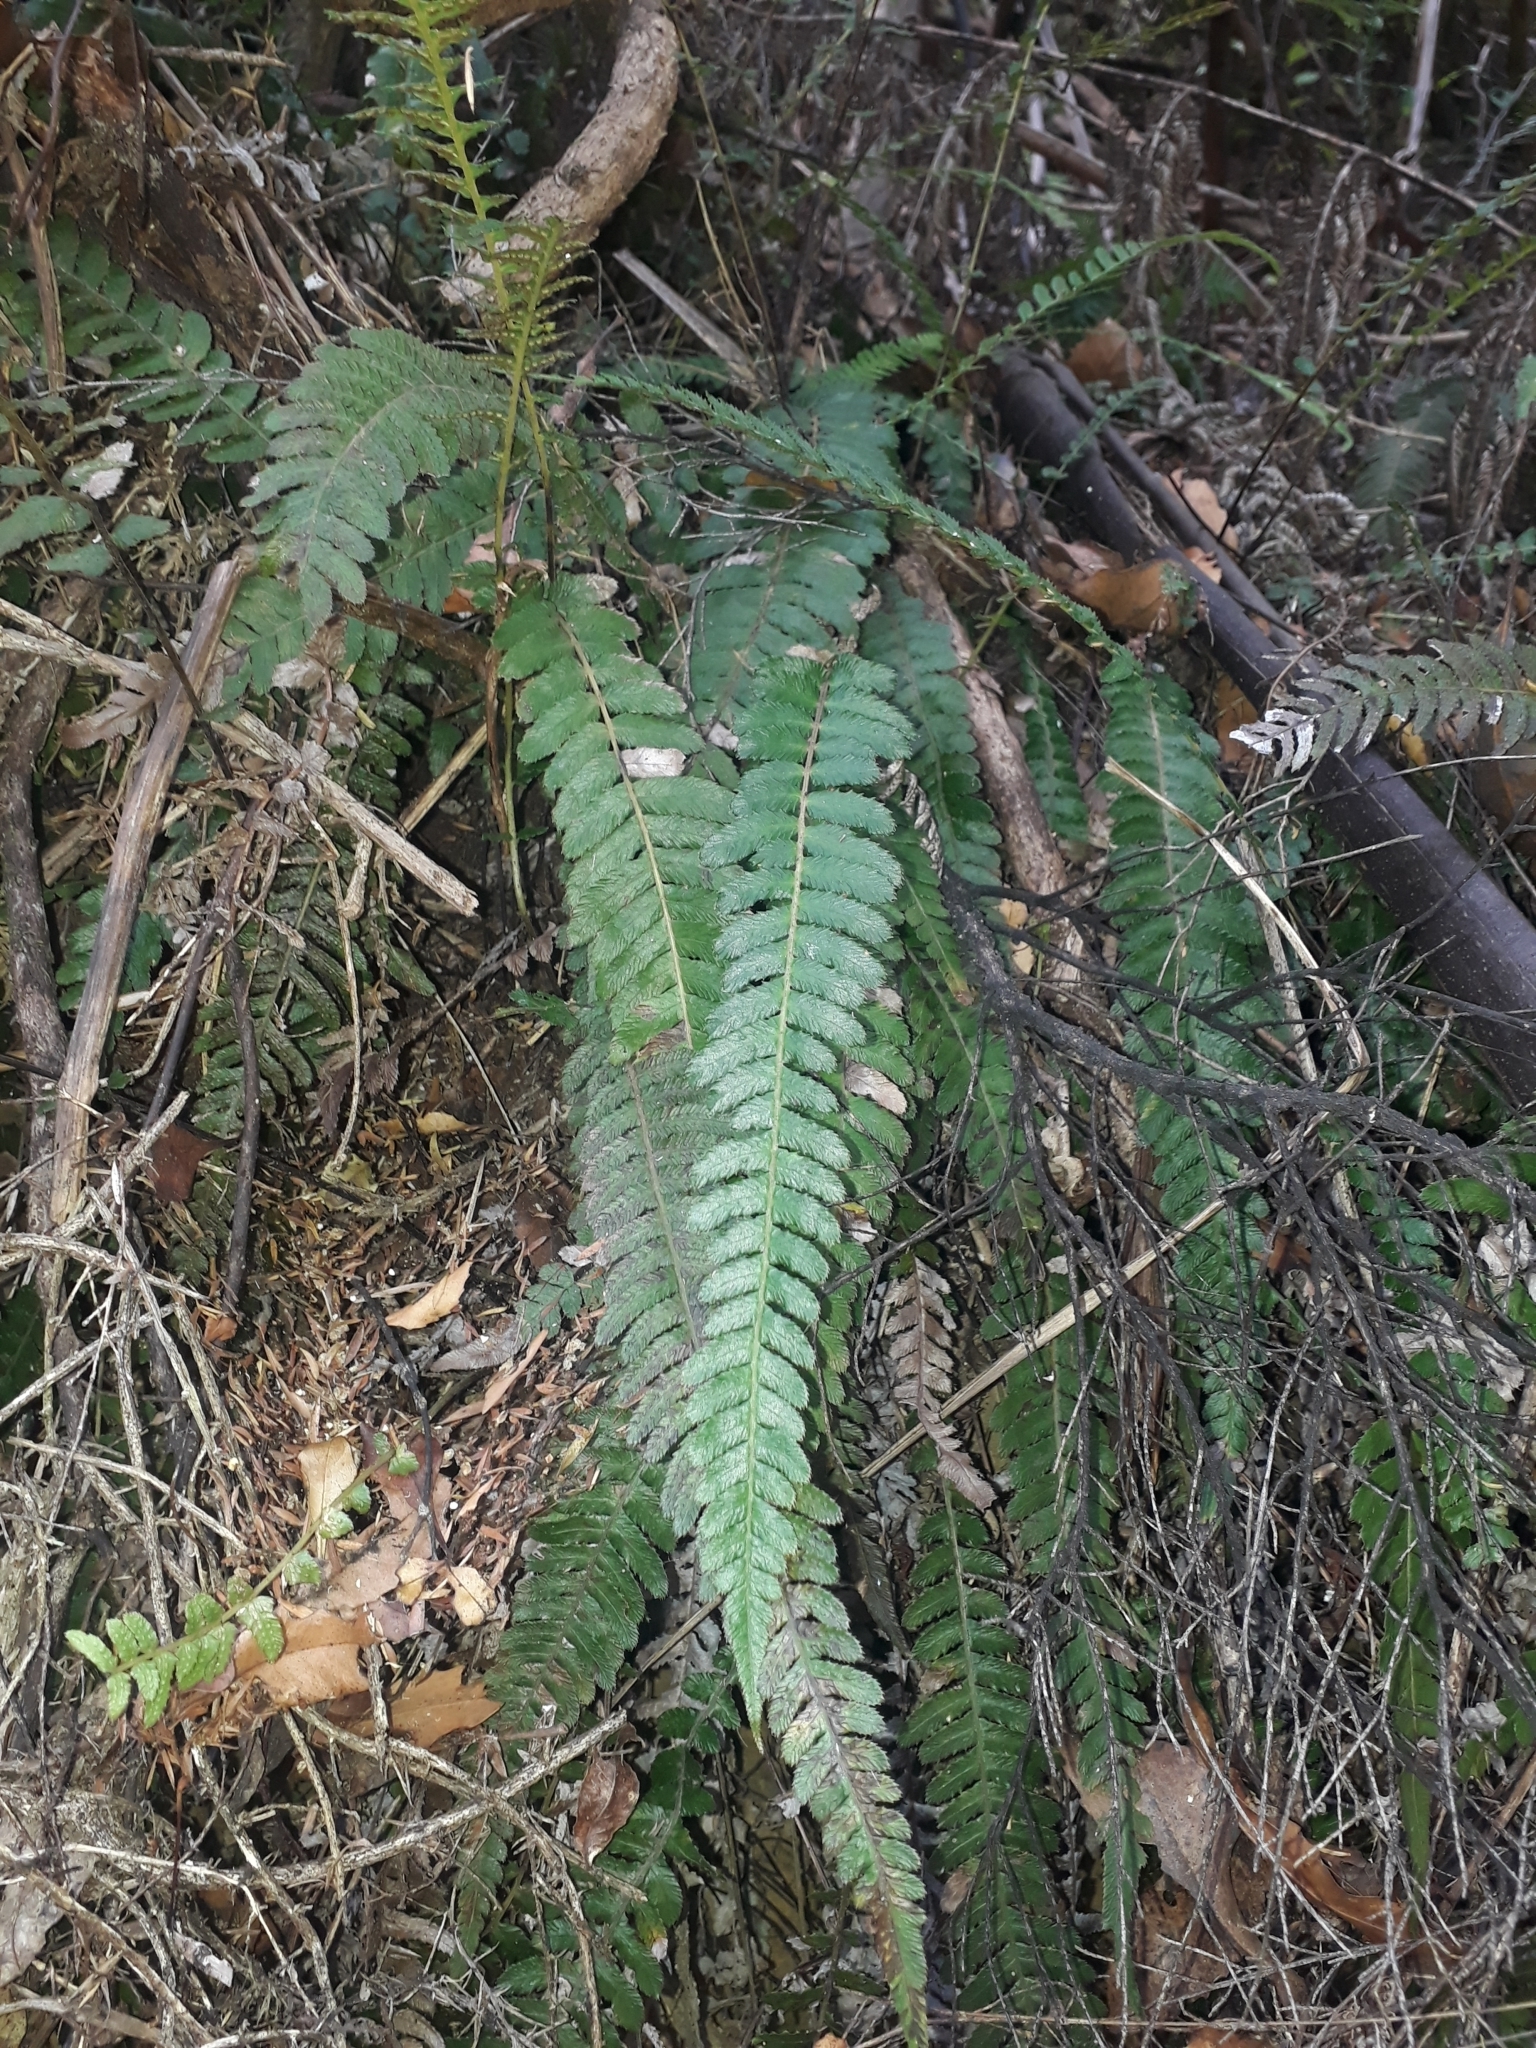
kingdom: Plantae
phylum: Tracheophyta
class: Polypodiopsida
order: Polypodiales
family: Blechnaceae
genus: Doodia
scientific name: Doodia australis
